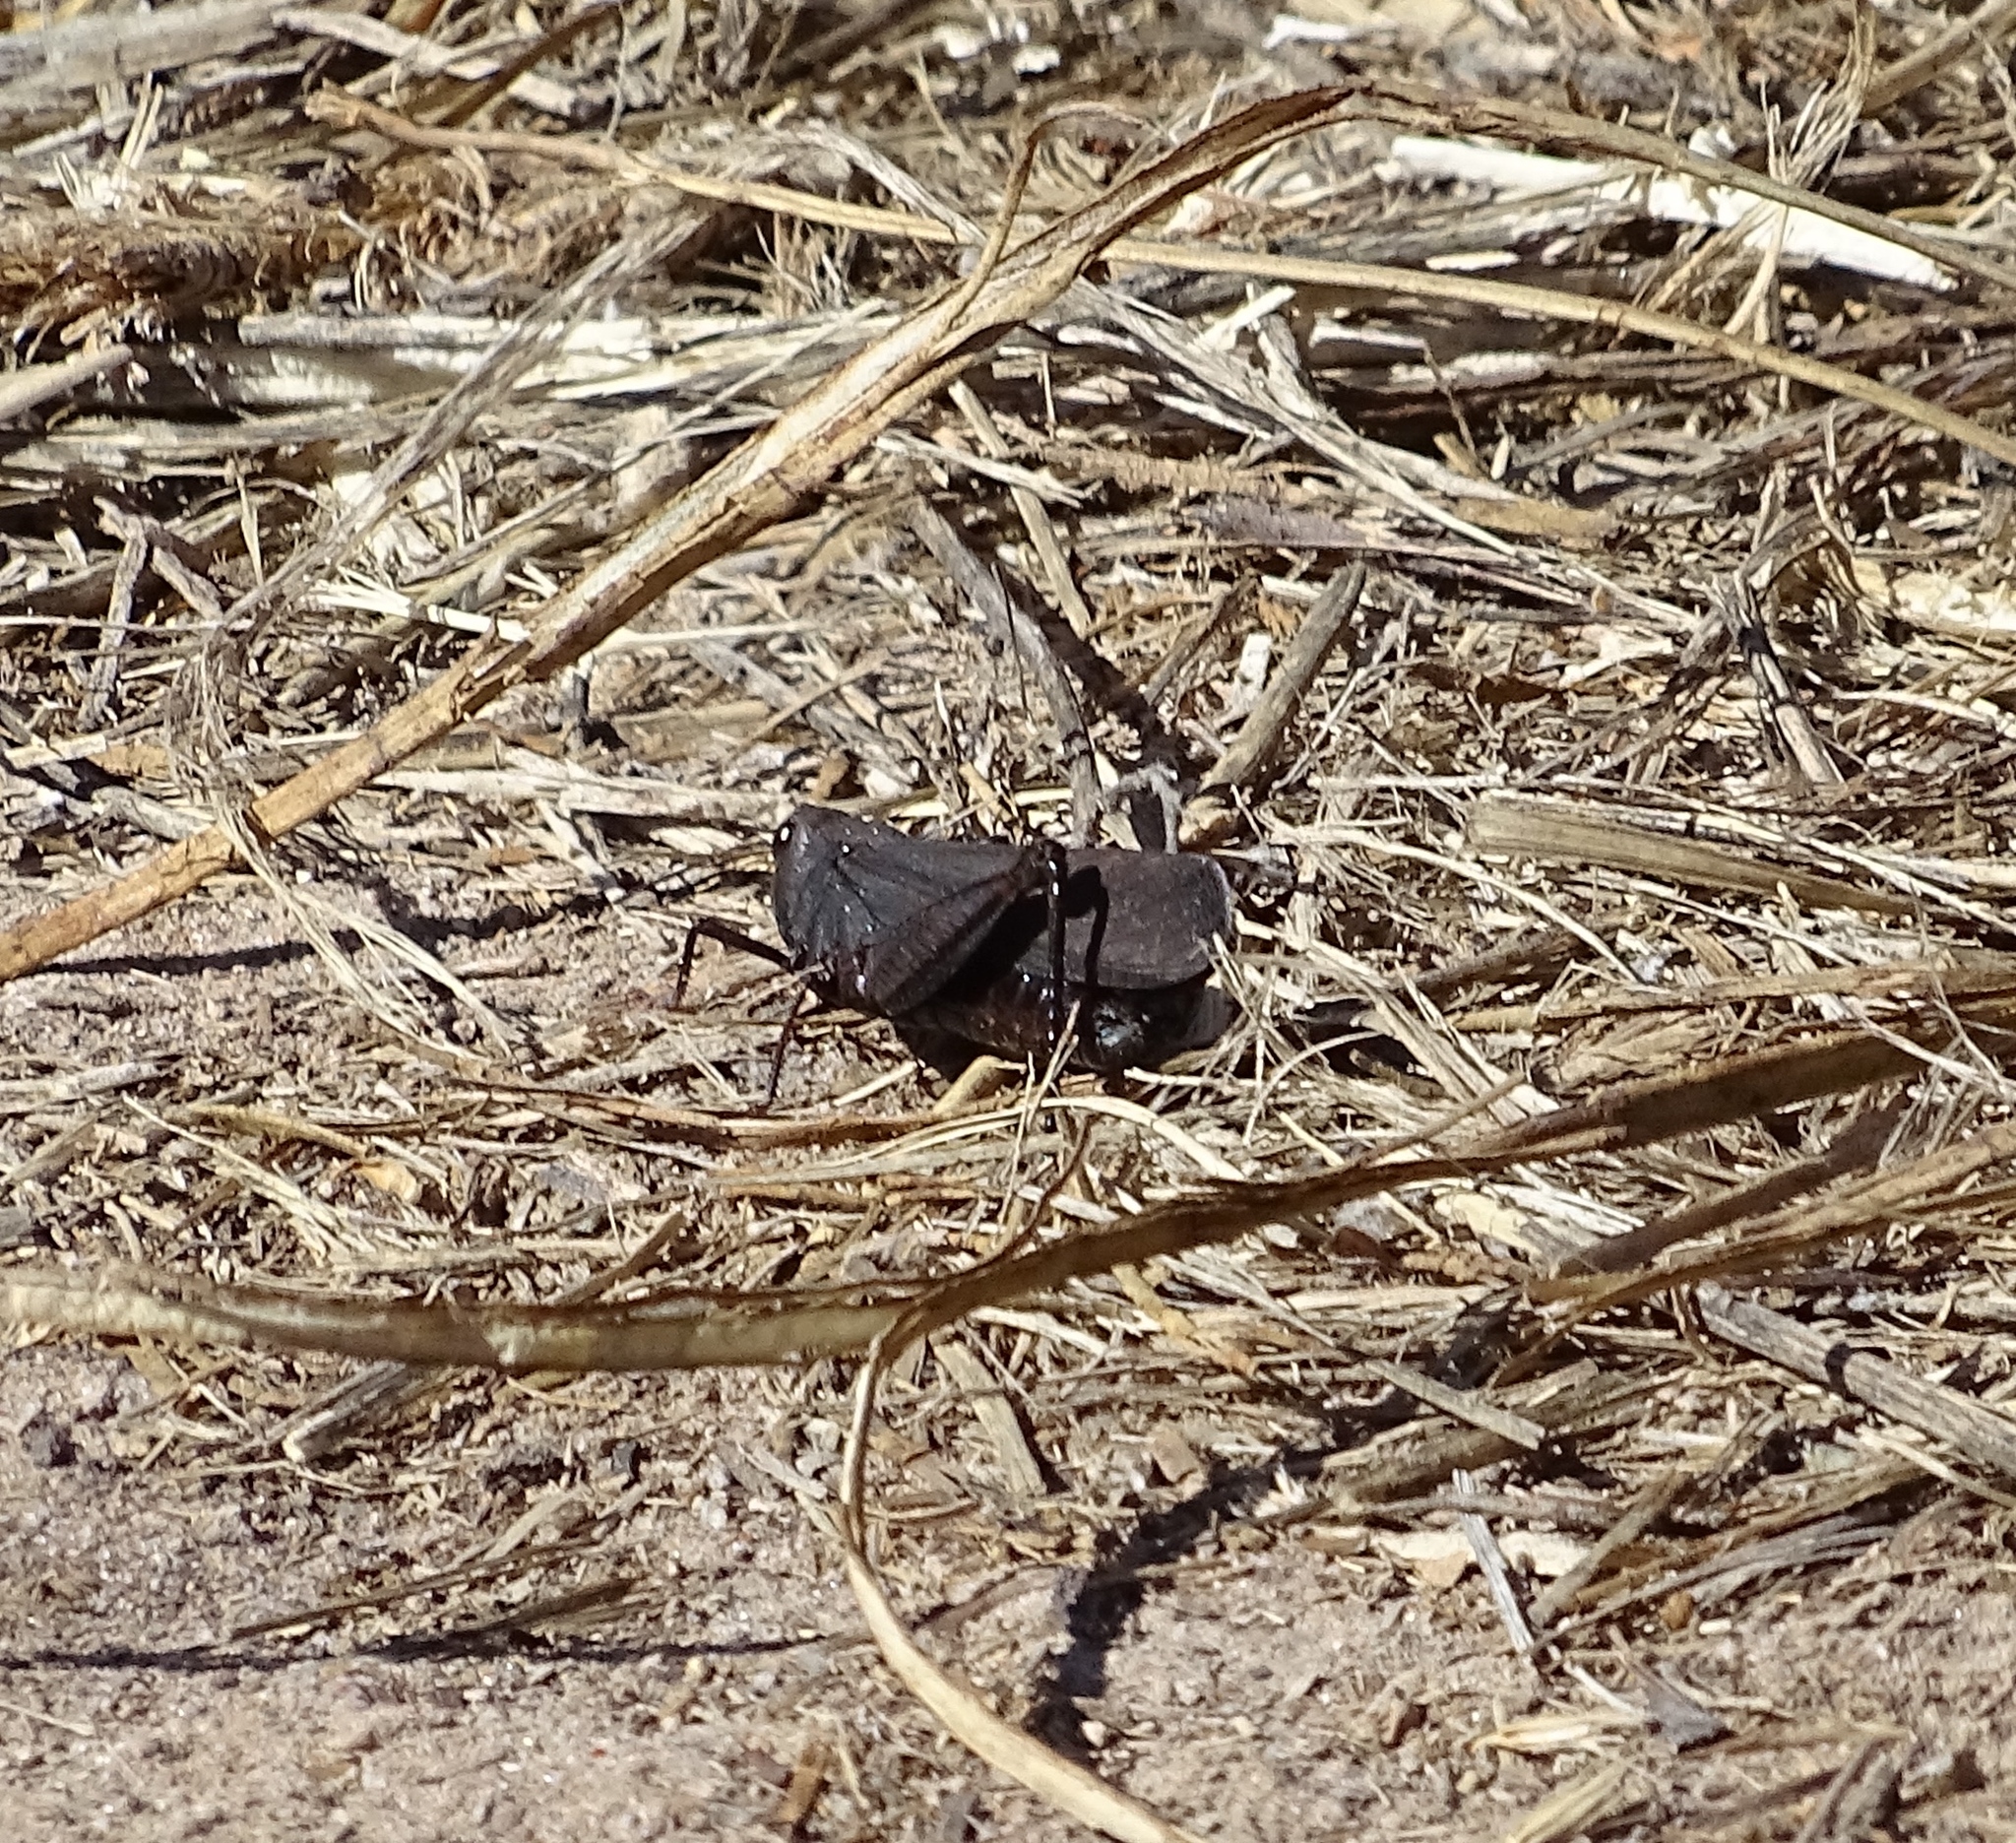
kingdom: Animalia
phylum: Arthropoda
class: Insecta
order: Orthoptera
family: Acrididae
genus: Arphia
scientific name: Arphia pseudo-nietana
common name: Red-winged grasshopper
